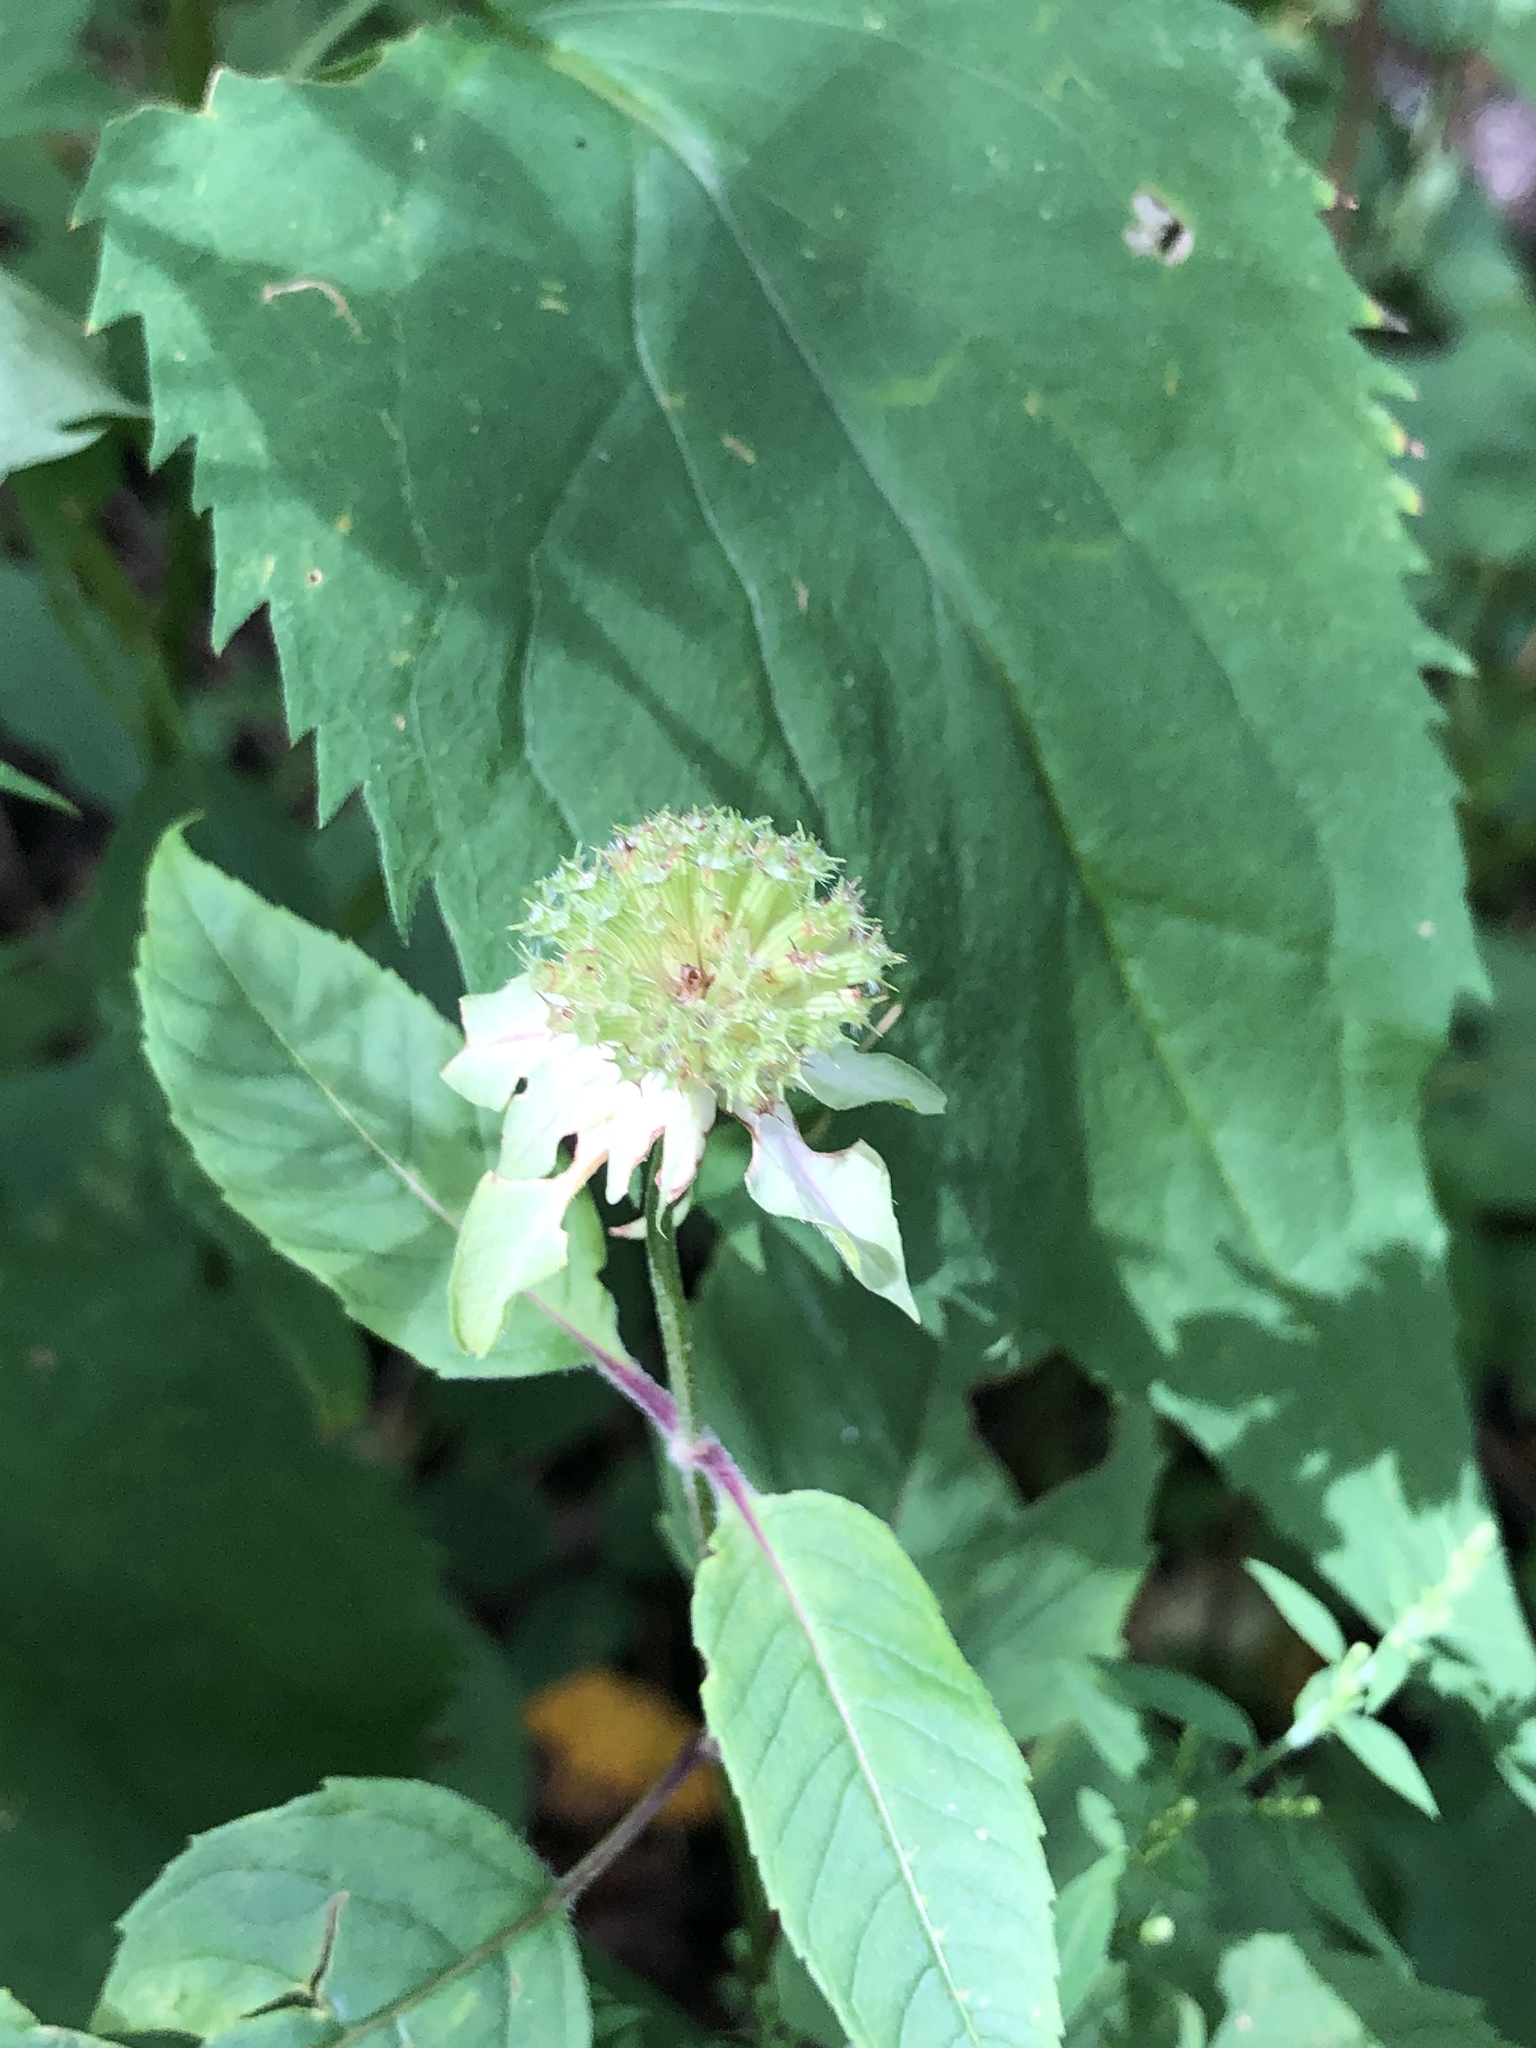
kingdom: Plantae
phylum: Tracheophyta
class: Magnoliopsida
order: Lamiales
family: Lamiaceae
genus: Monarda
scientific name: Monarda clinopodia
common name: Basil beebalm
